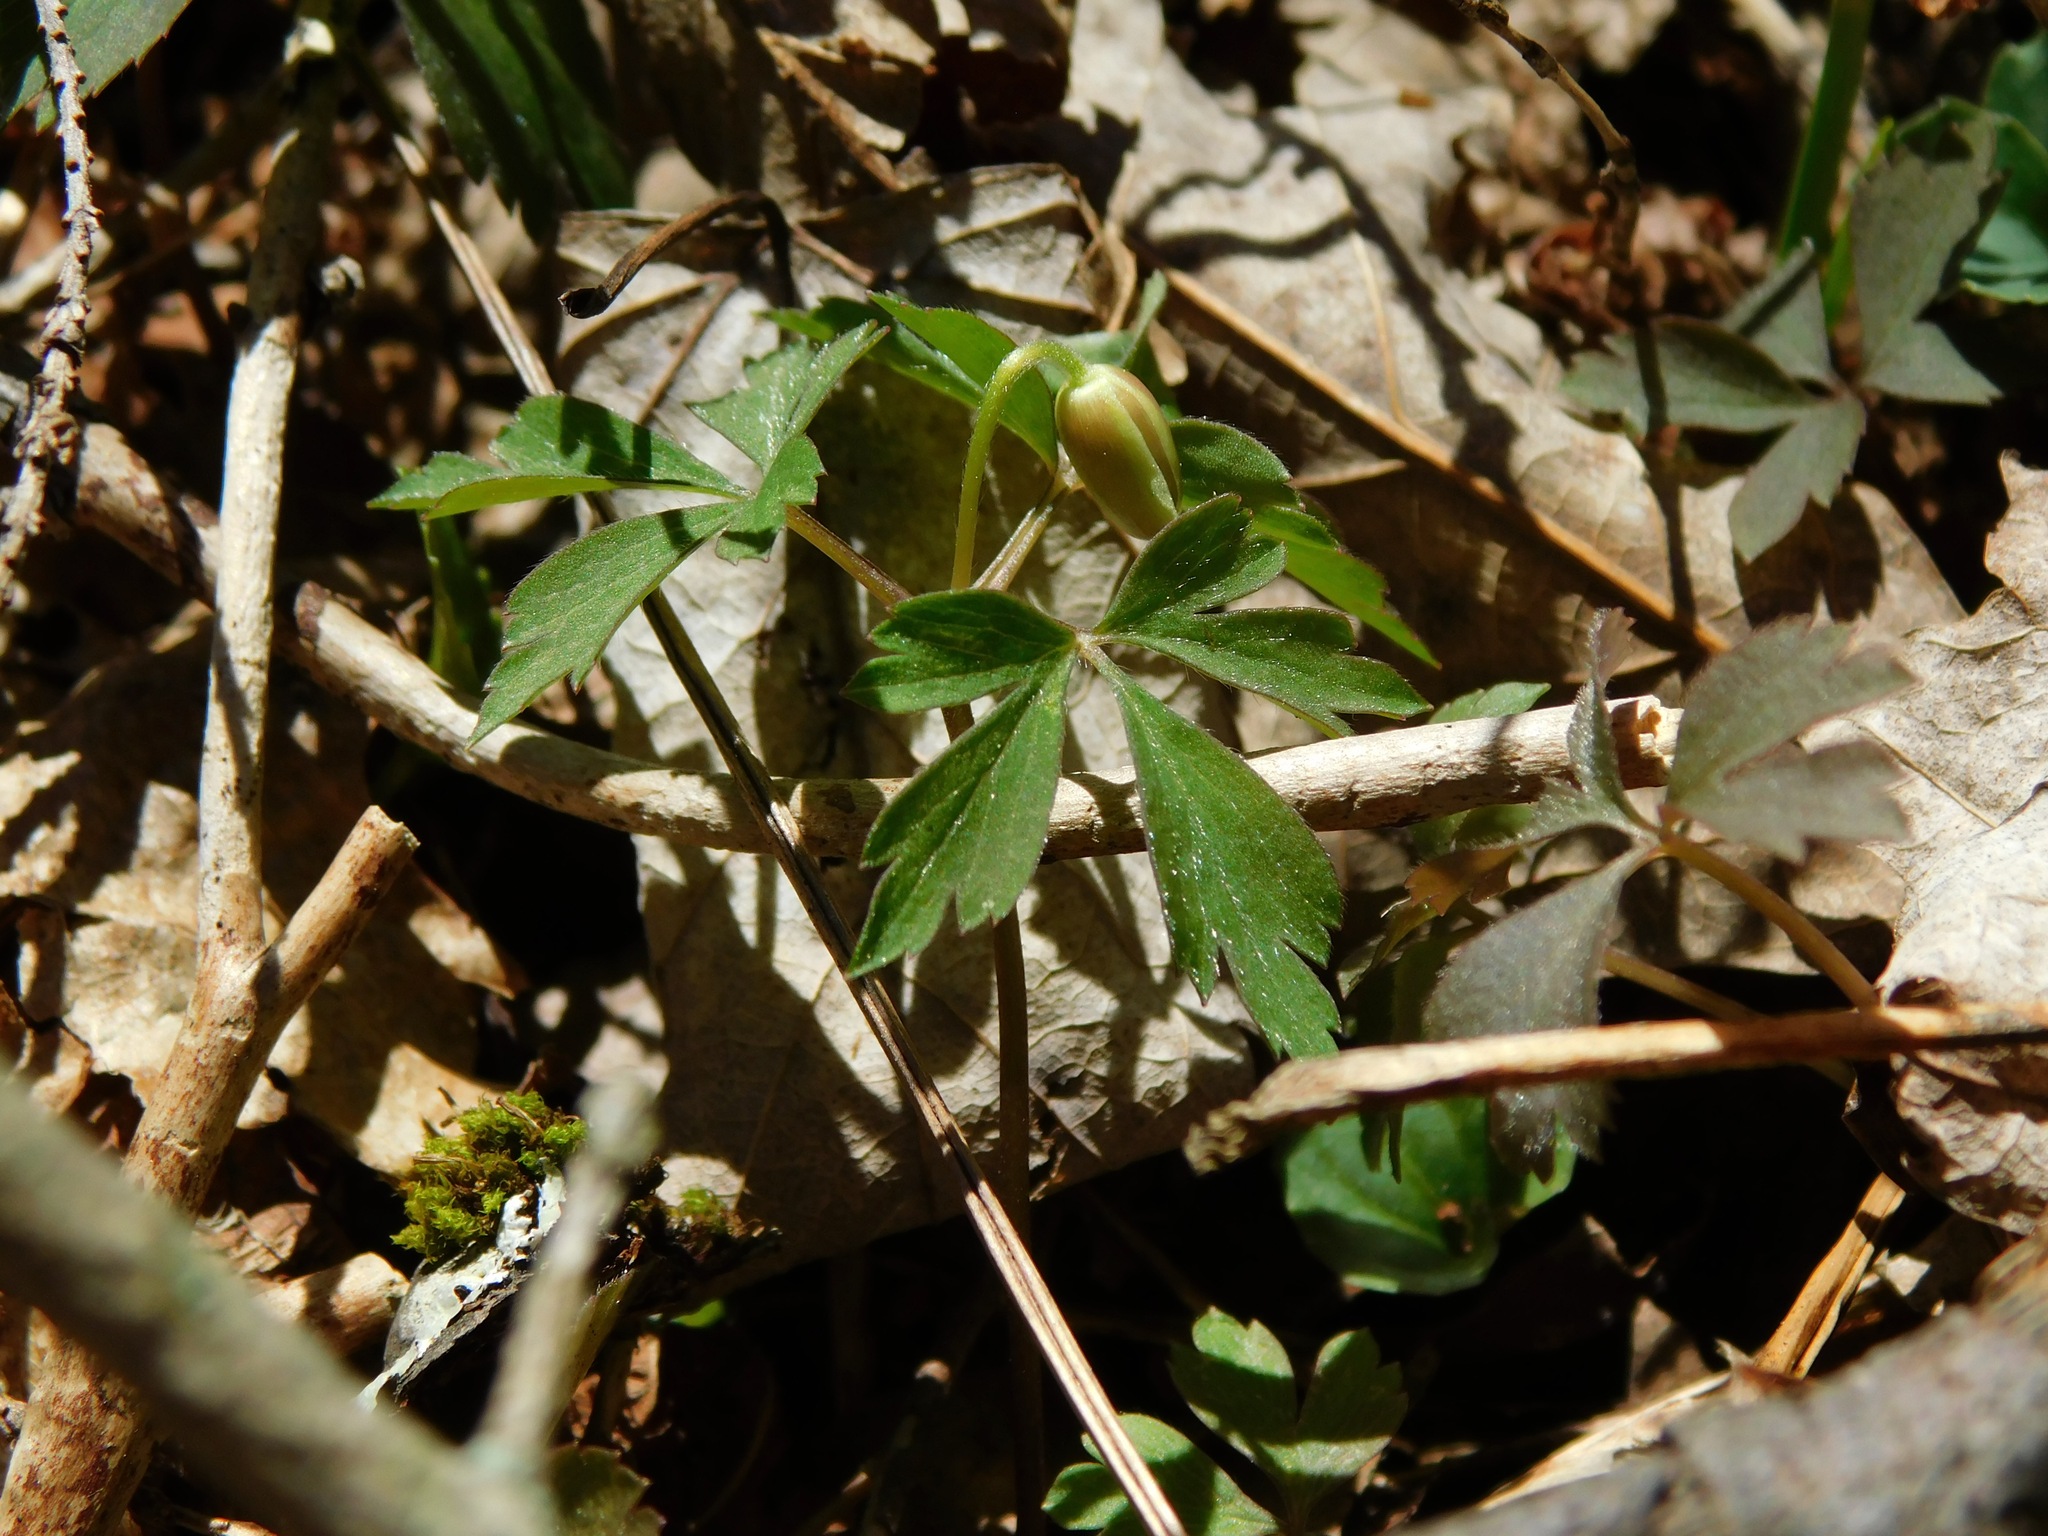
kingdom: Plantae
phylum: Tracheophyta
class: Magnoliopsida
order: Ranunculales
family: Ranunculaceae
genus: Anemone
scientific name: Anemone quinquefolia
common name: Wood anemone
